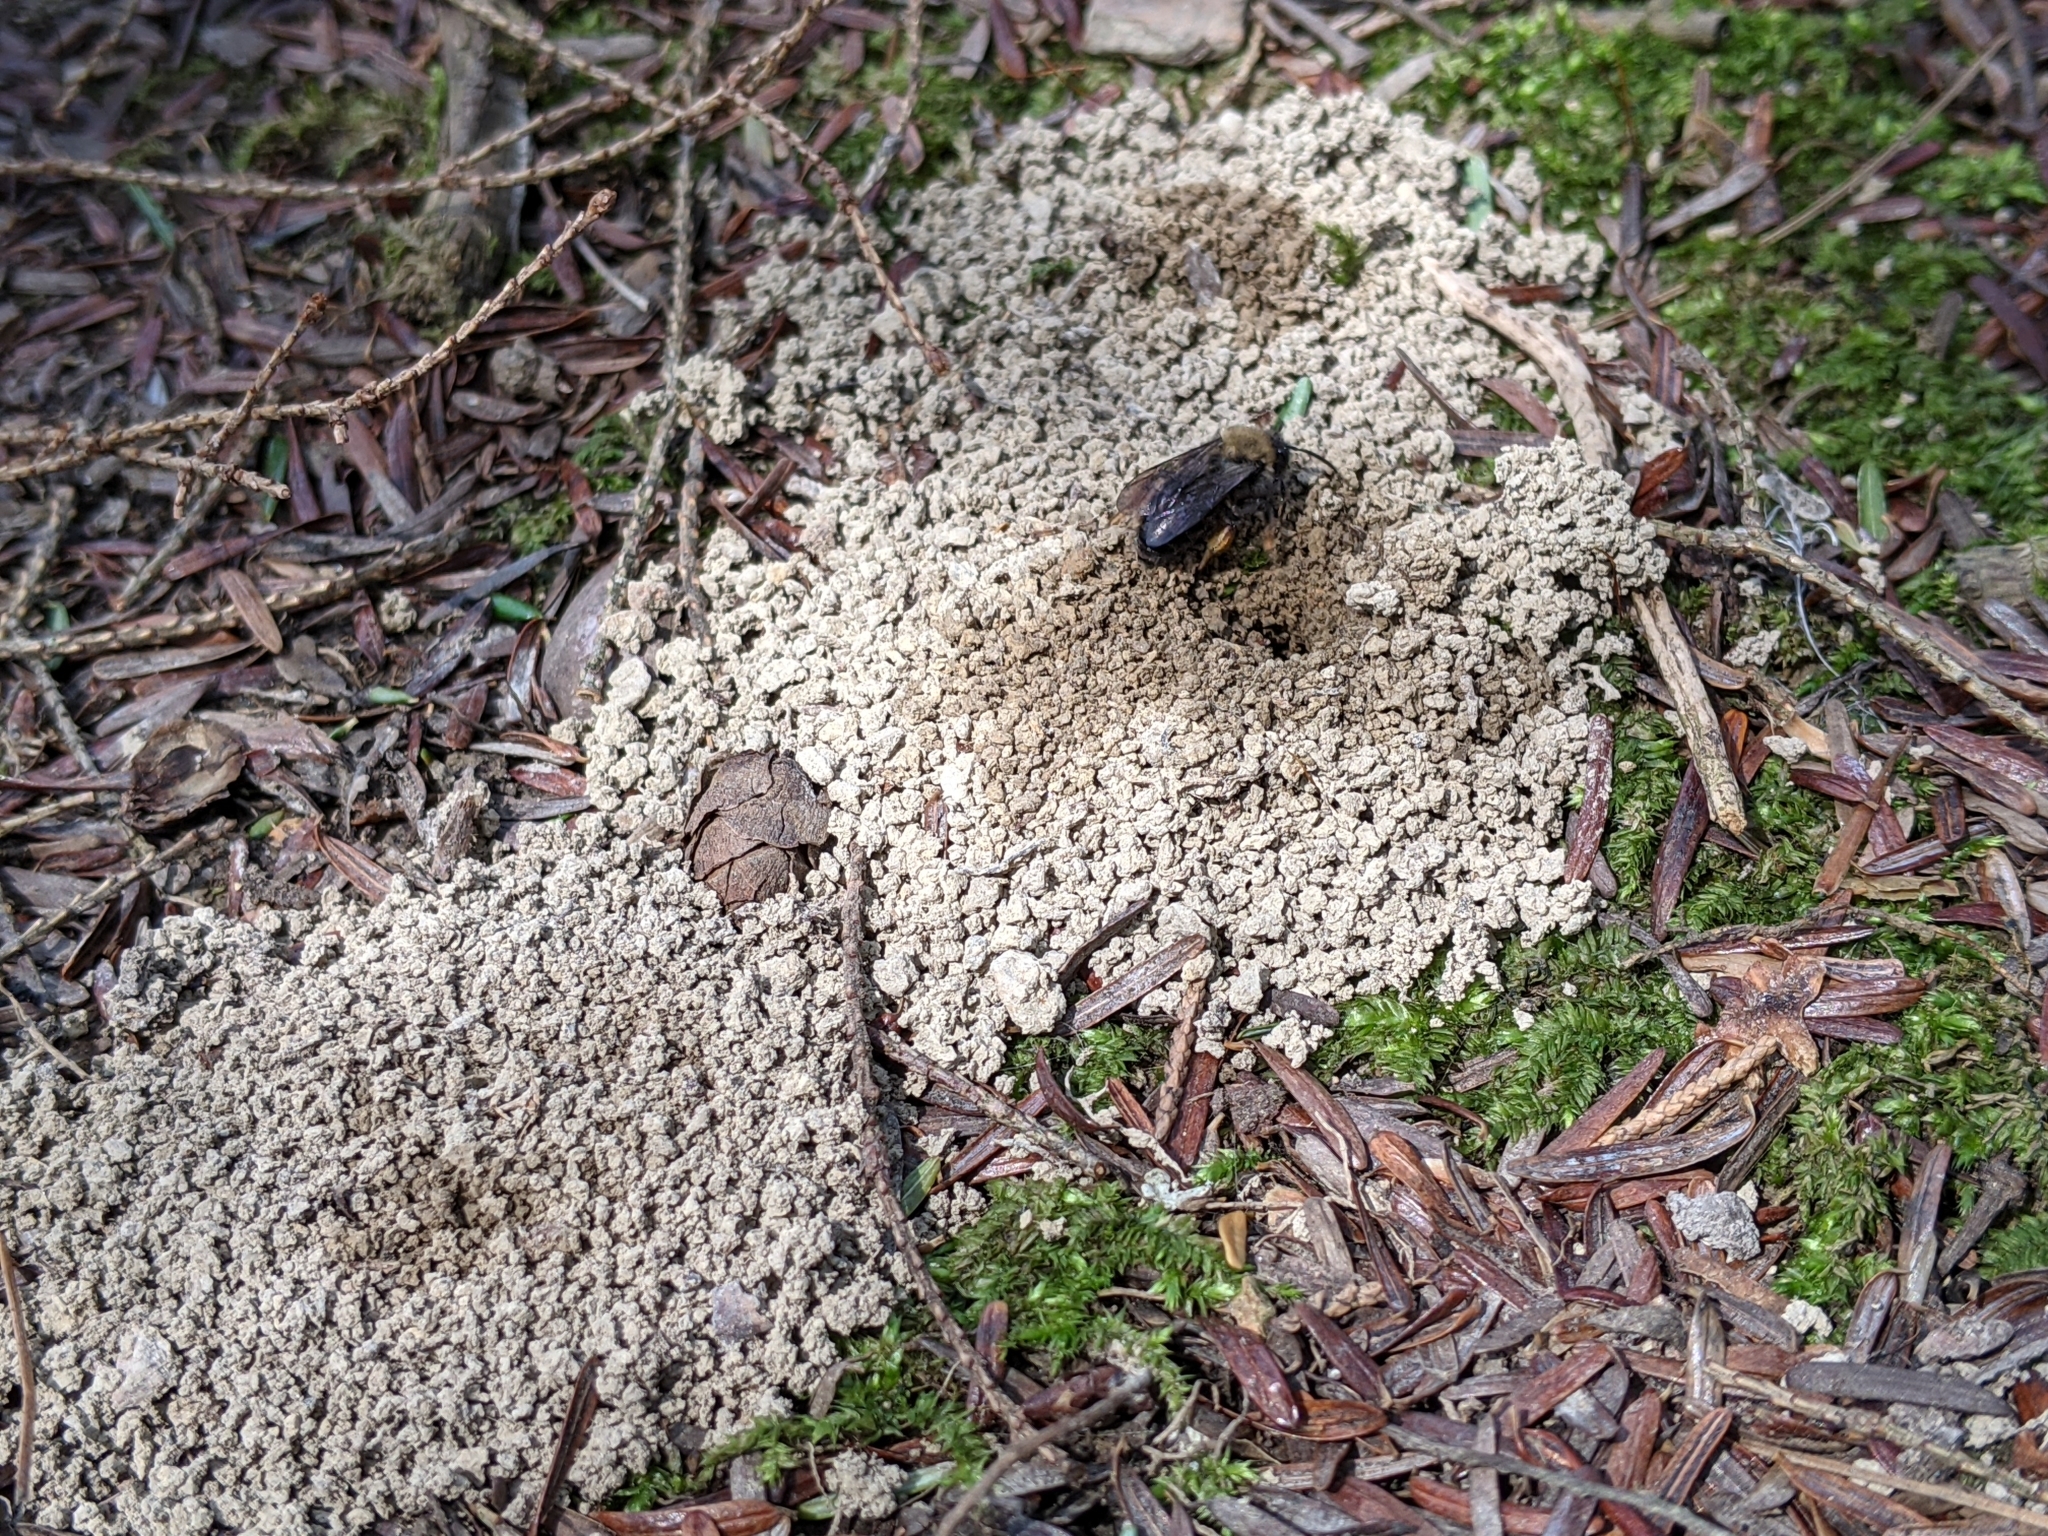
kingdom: Animalia
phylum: Arthropoda
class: Insecta
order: Hymenoptera
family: Andrenidae
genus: Andrena
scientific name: Andrena clarkella
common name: Clarke's mining bee
